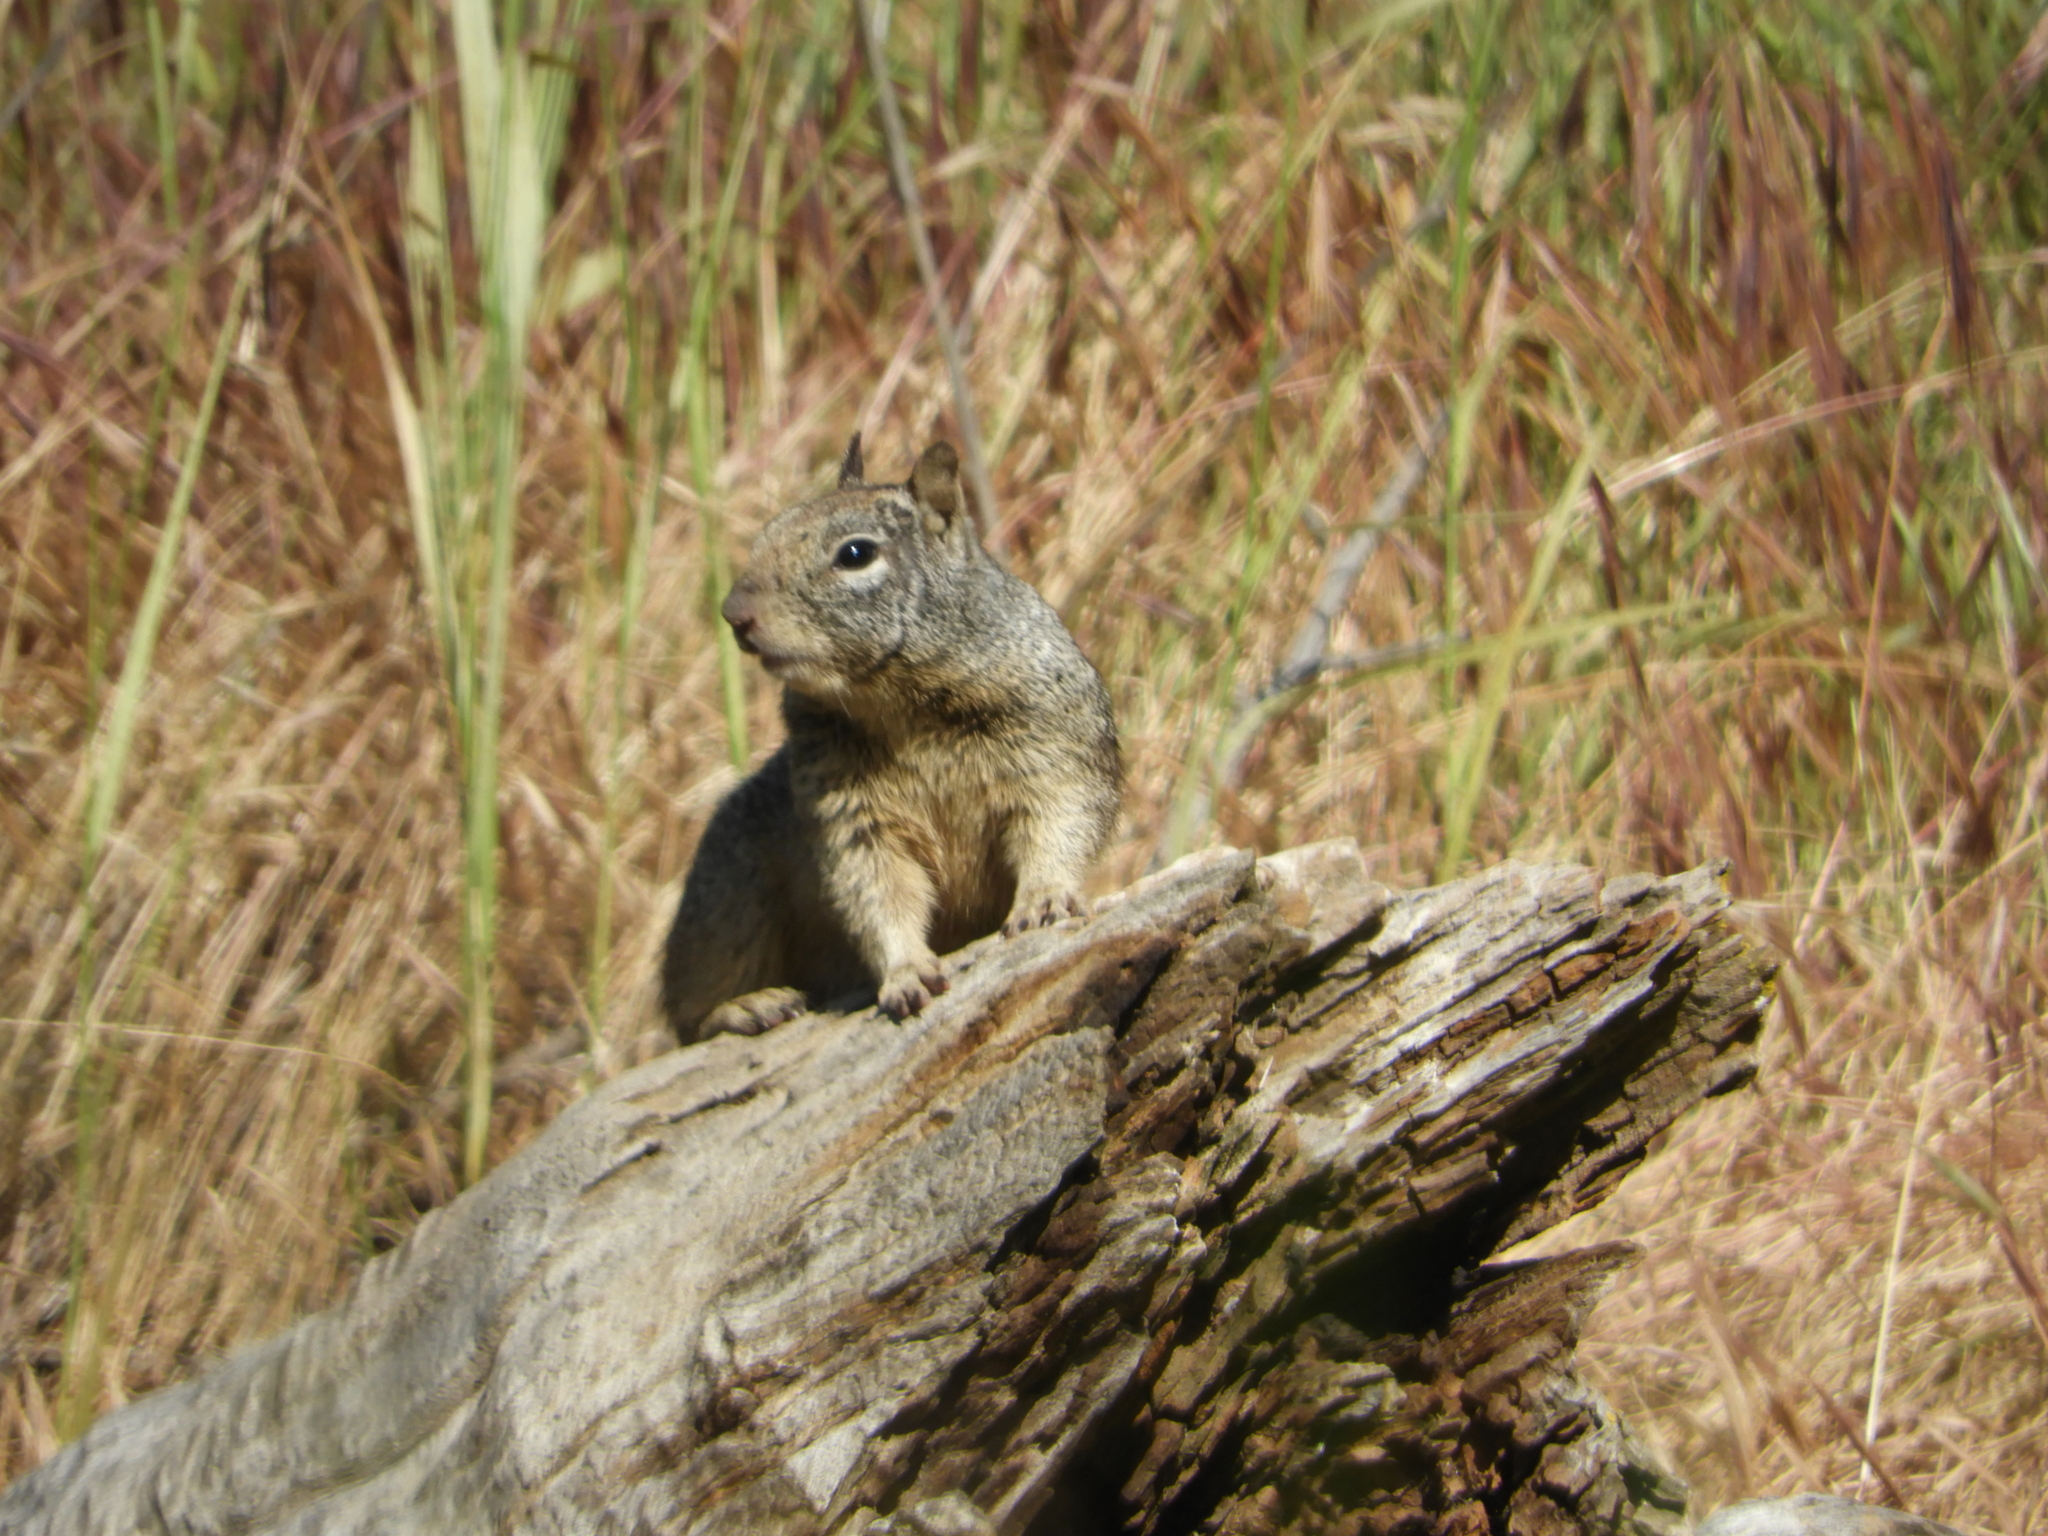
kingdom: Animalia
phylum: Chordata
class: Mammalia
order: Rodentia
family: Sciuridae
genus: Otospermophilus
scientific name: Otospermophilus beecheyi
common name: California ground squirrel
